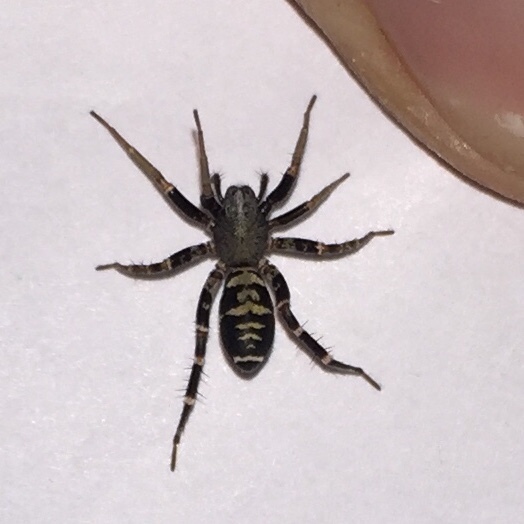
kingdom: Animalia
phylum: Arthropoda
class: Arachnida
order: Araneae
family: Corinnidae
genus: Castianeira
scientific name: Castianeira longipalpa
